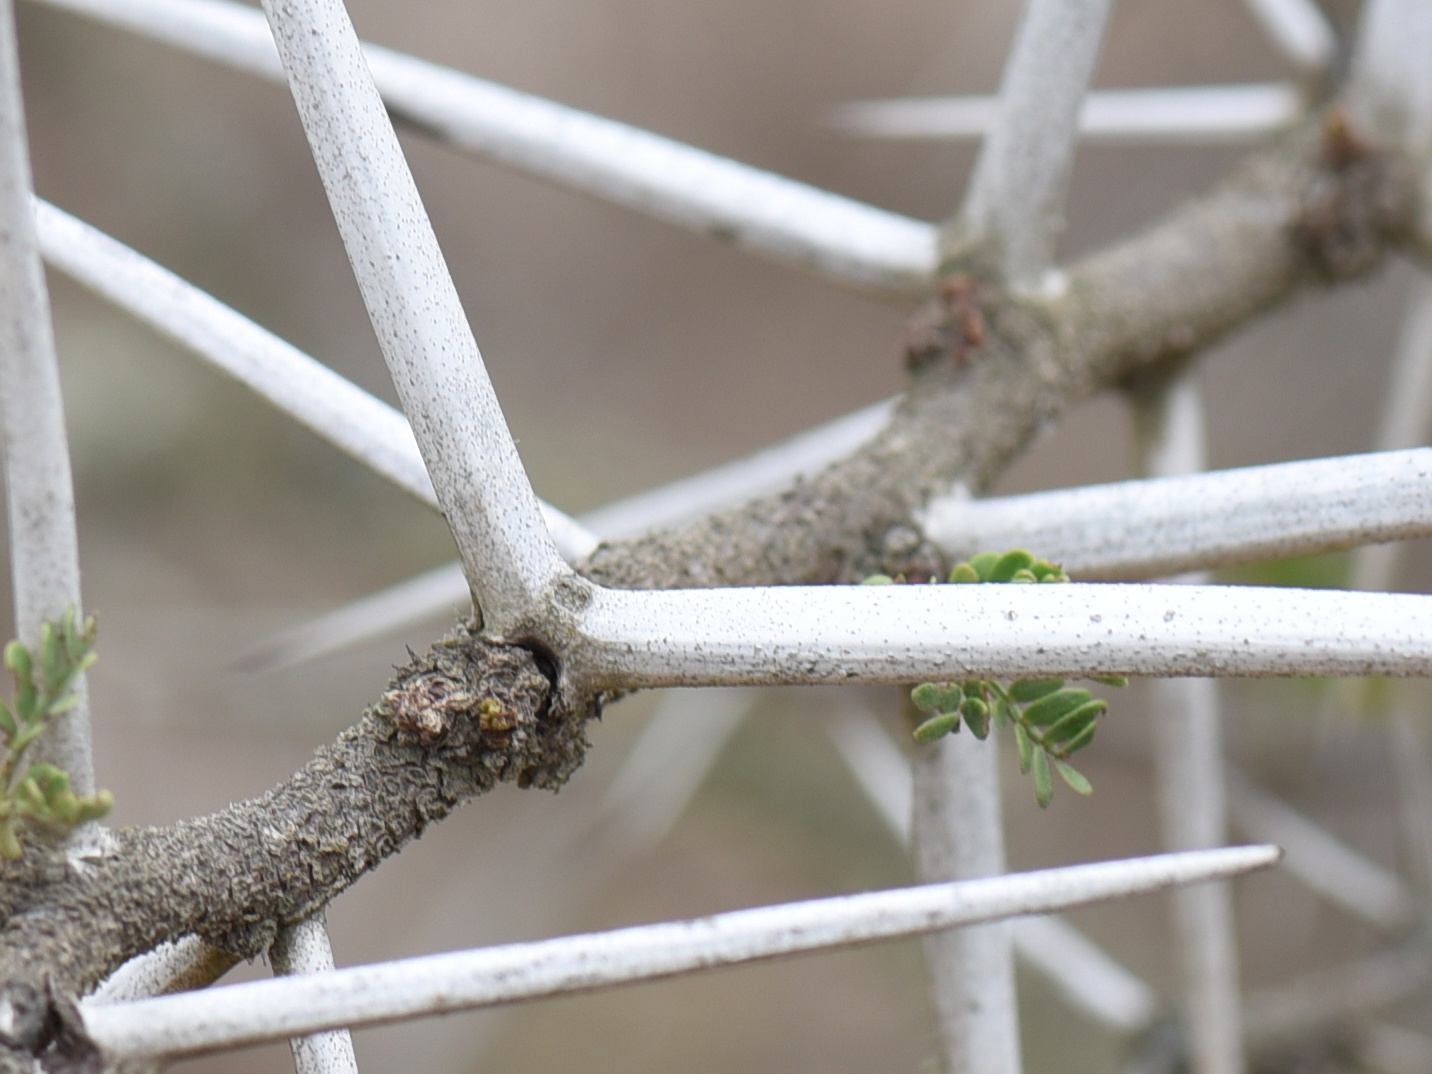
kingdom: Plantae
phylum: Tracheophyta
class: Magnoliopsida
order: Fabales
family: Fabaceae
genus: Vachellia
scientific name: Vachellia karroo
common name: Sweet thorn
